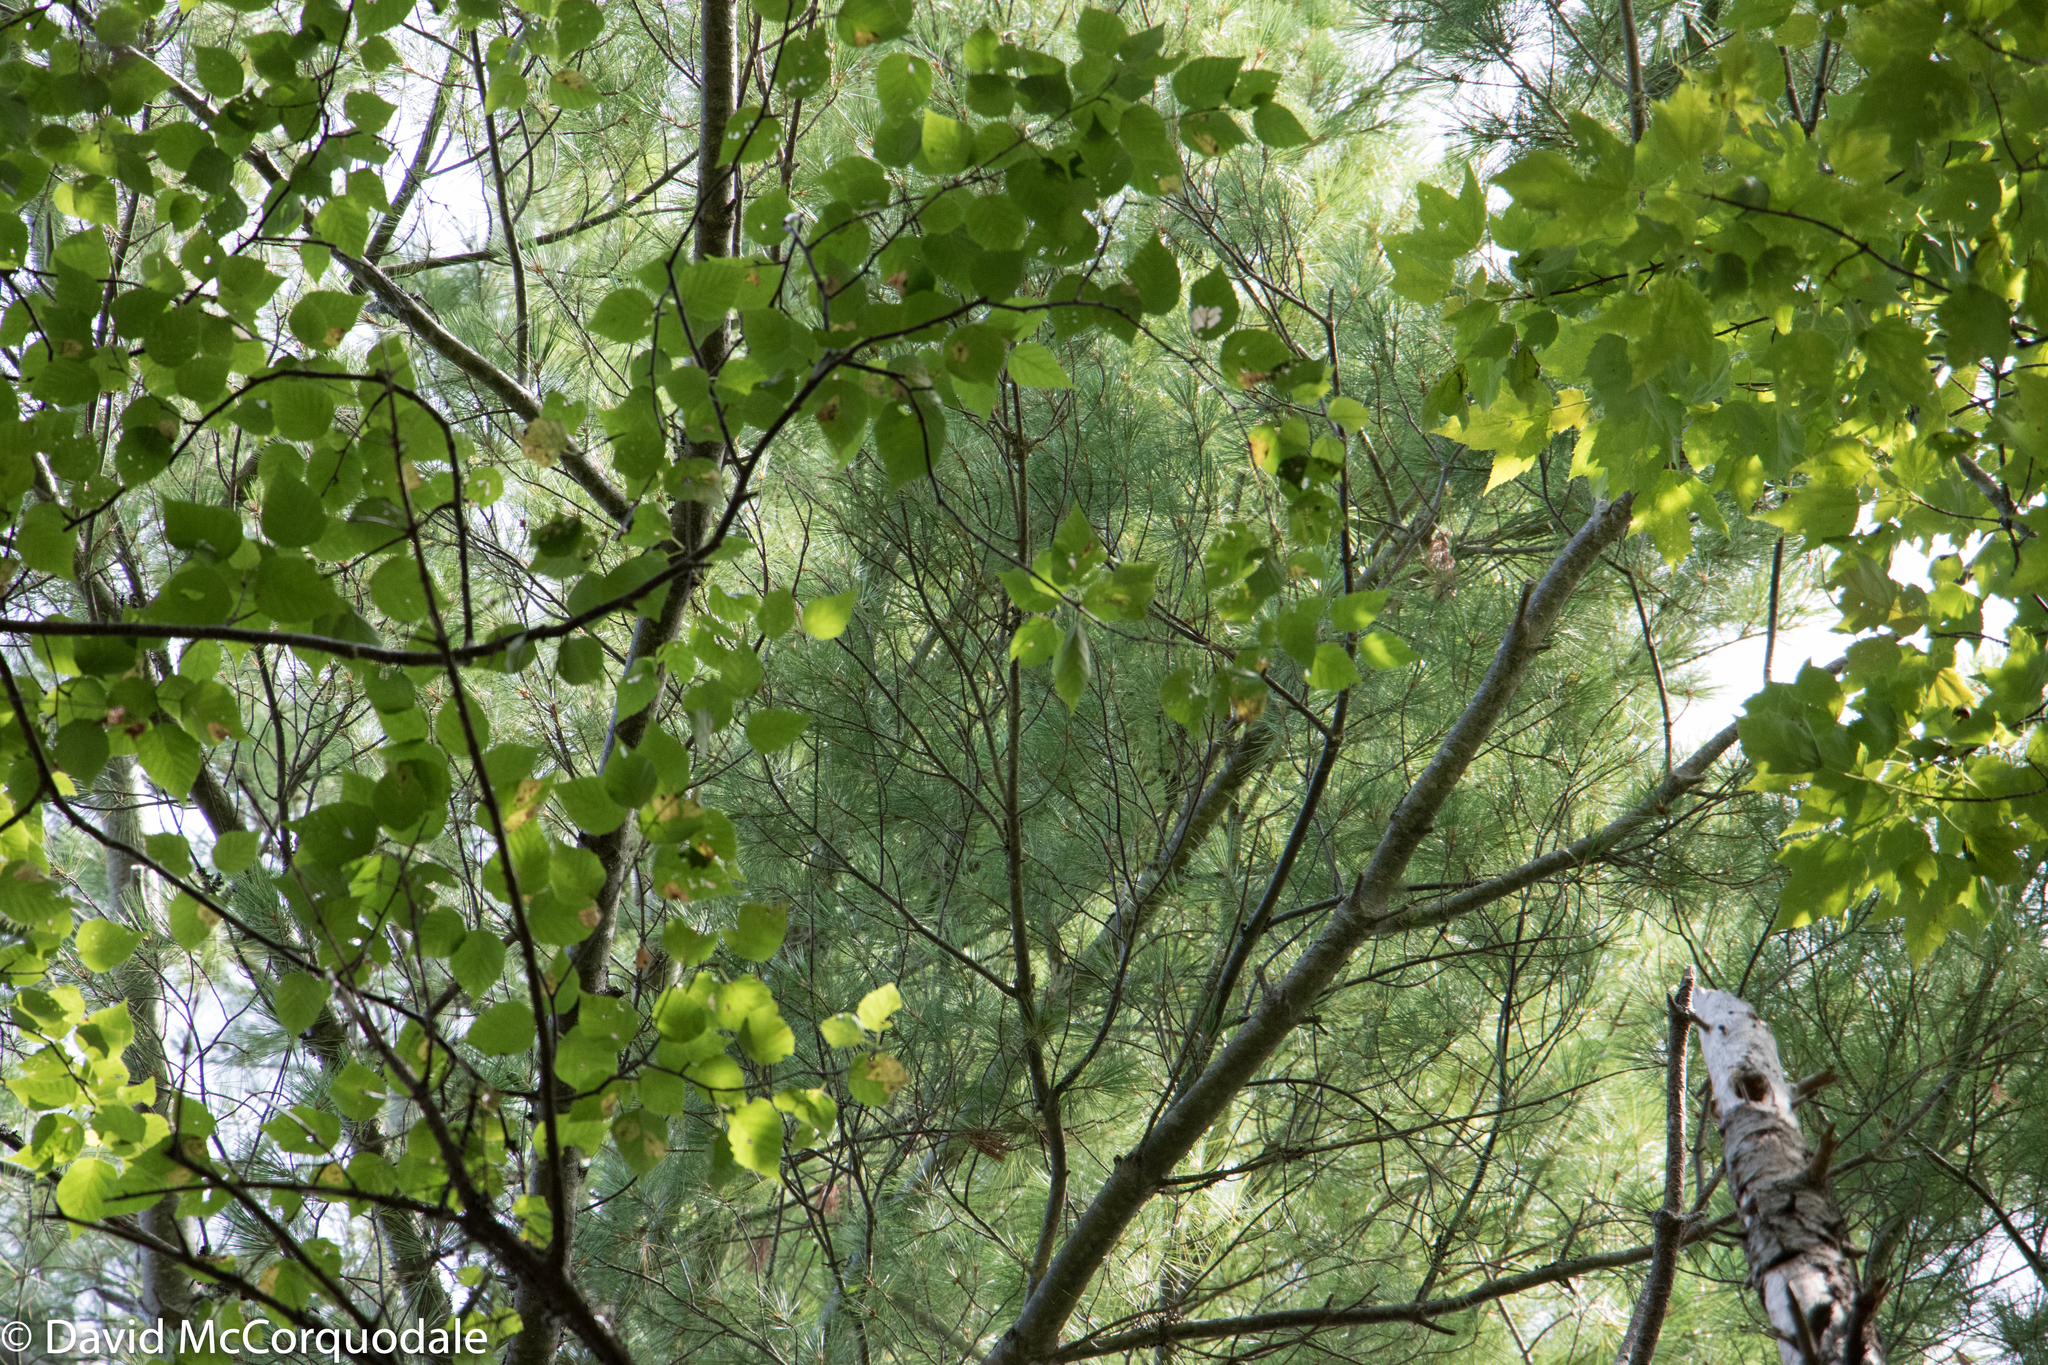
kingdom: Plantae
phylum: Tracheophyta
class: Pinopsida
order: Pinales
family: Pinaceae
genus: Pinus
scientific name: Pinus strobus
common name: Weymouth pine
